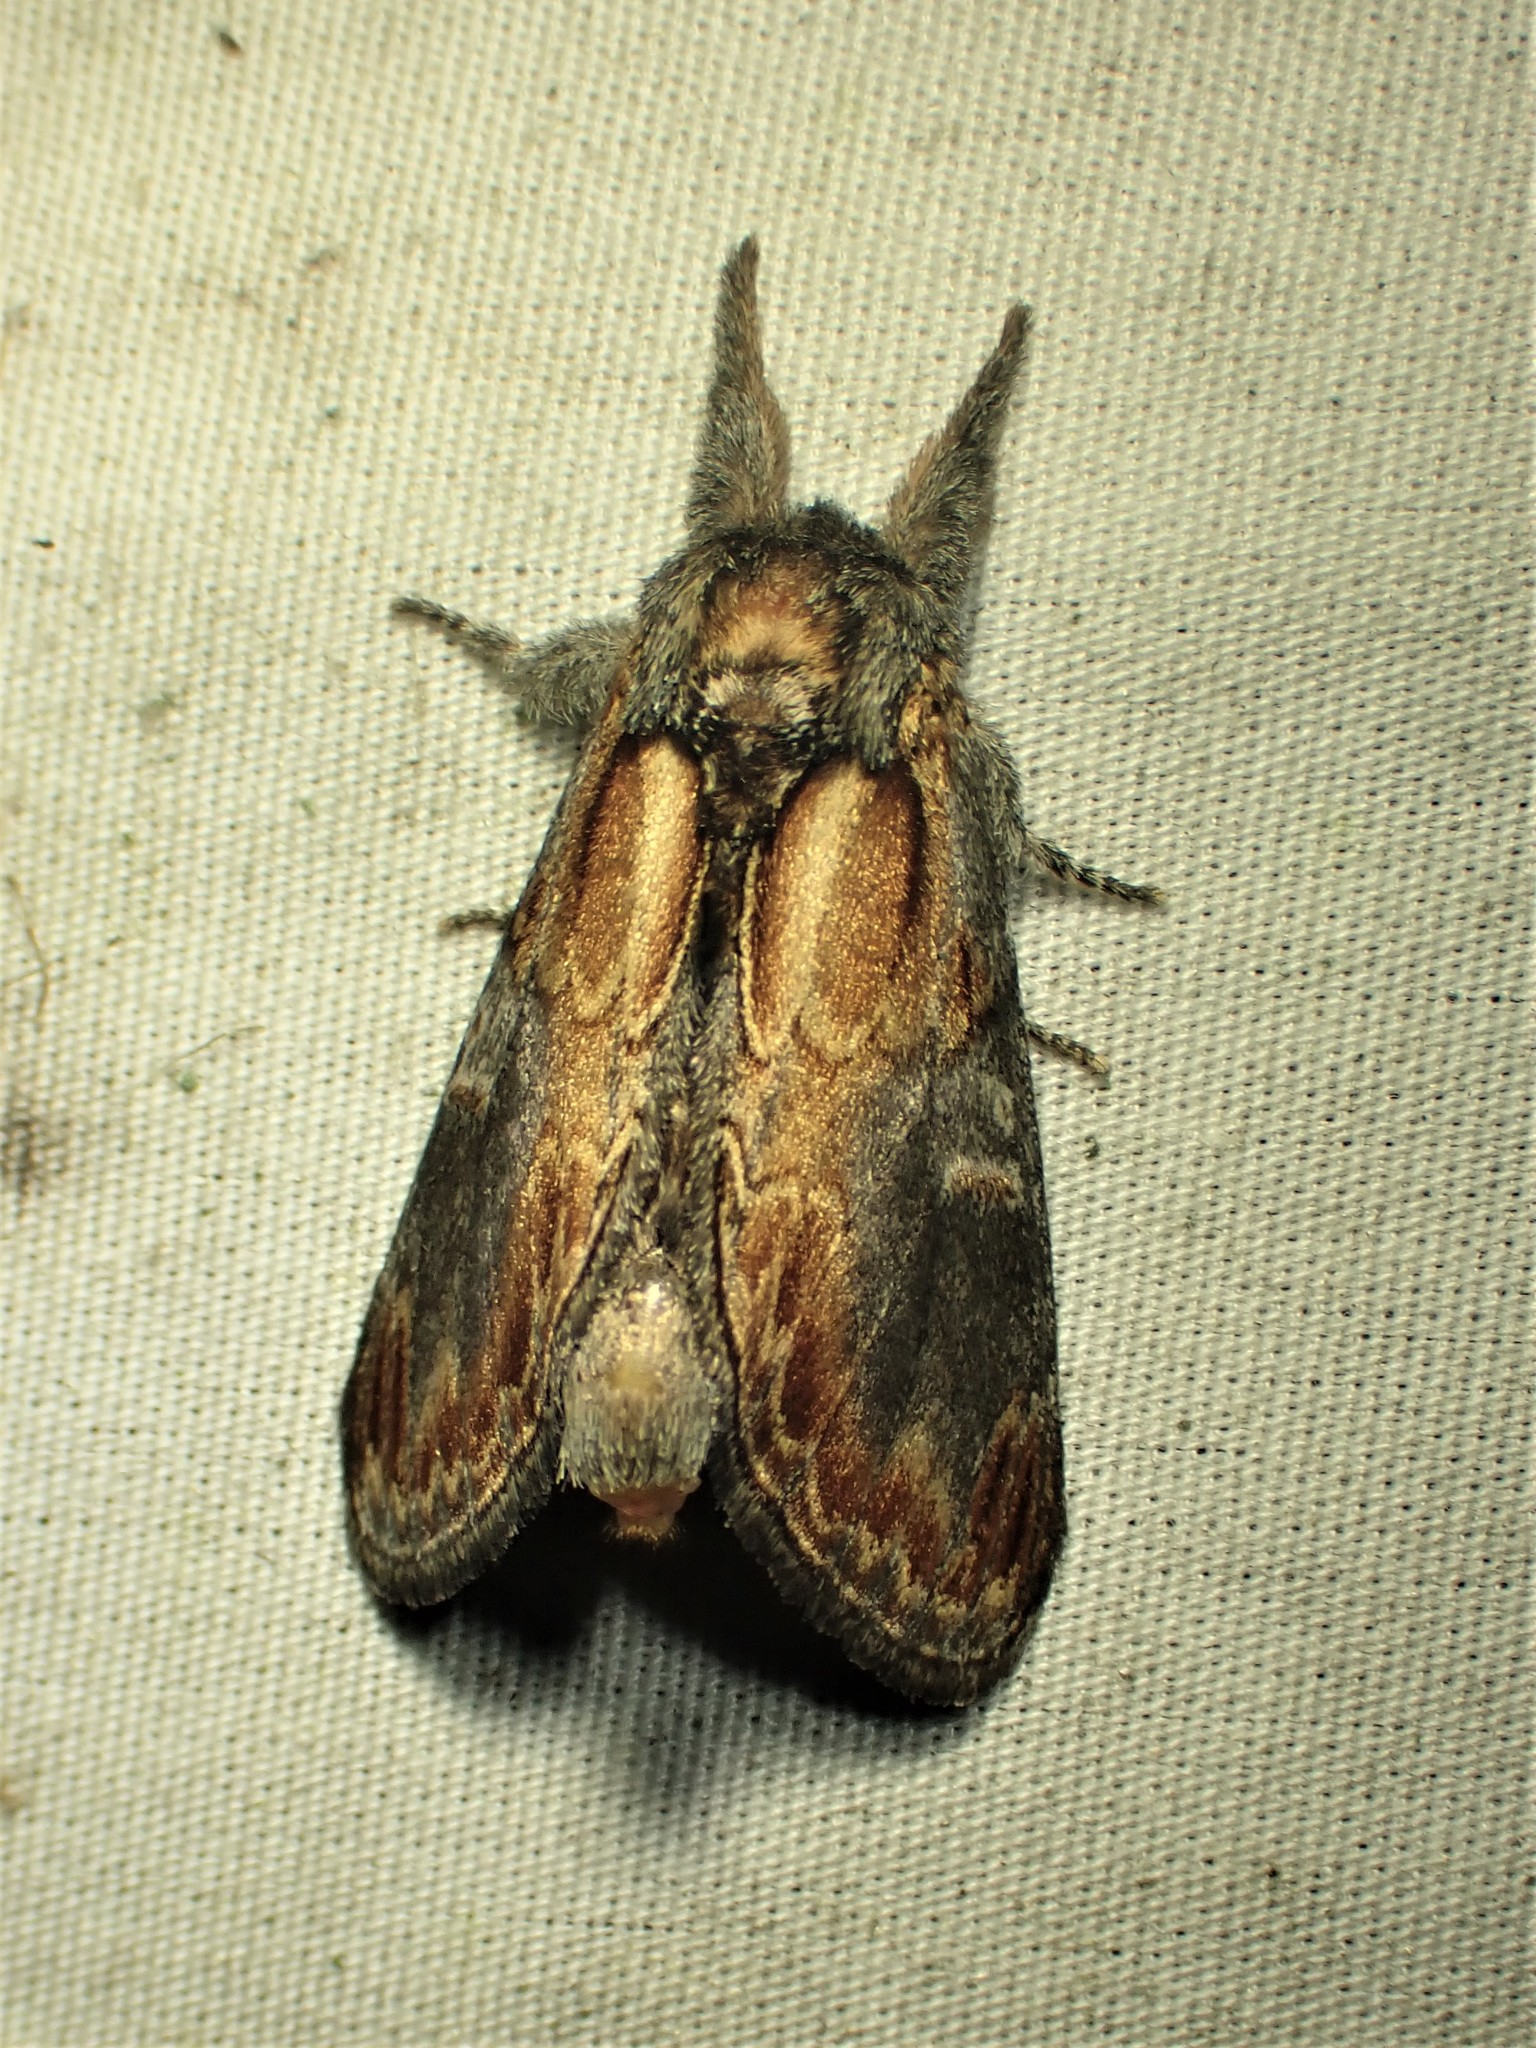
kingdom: Animalia
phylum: Arthropoda
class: Insecta
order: Lepidoptera
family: Notodontidae
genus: Notodonta
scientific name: Notodonta scitipennis
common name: Finned-willow prominent moth
